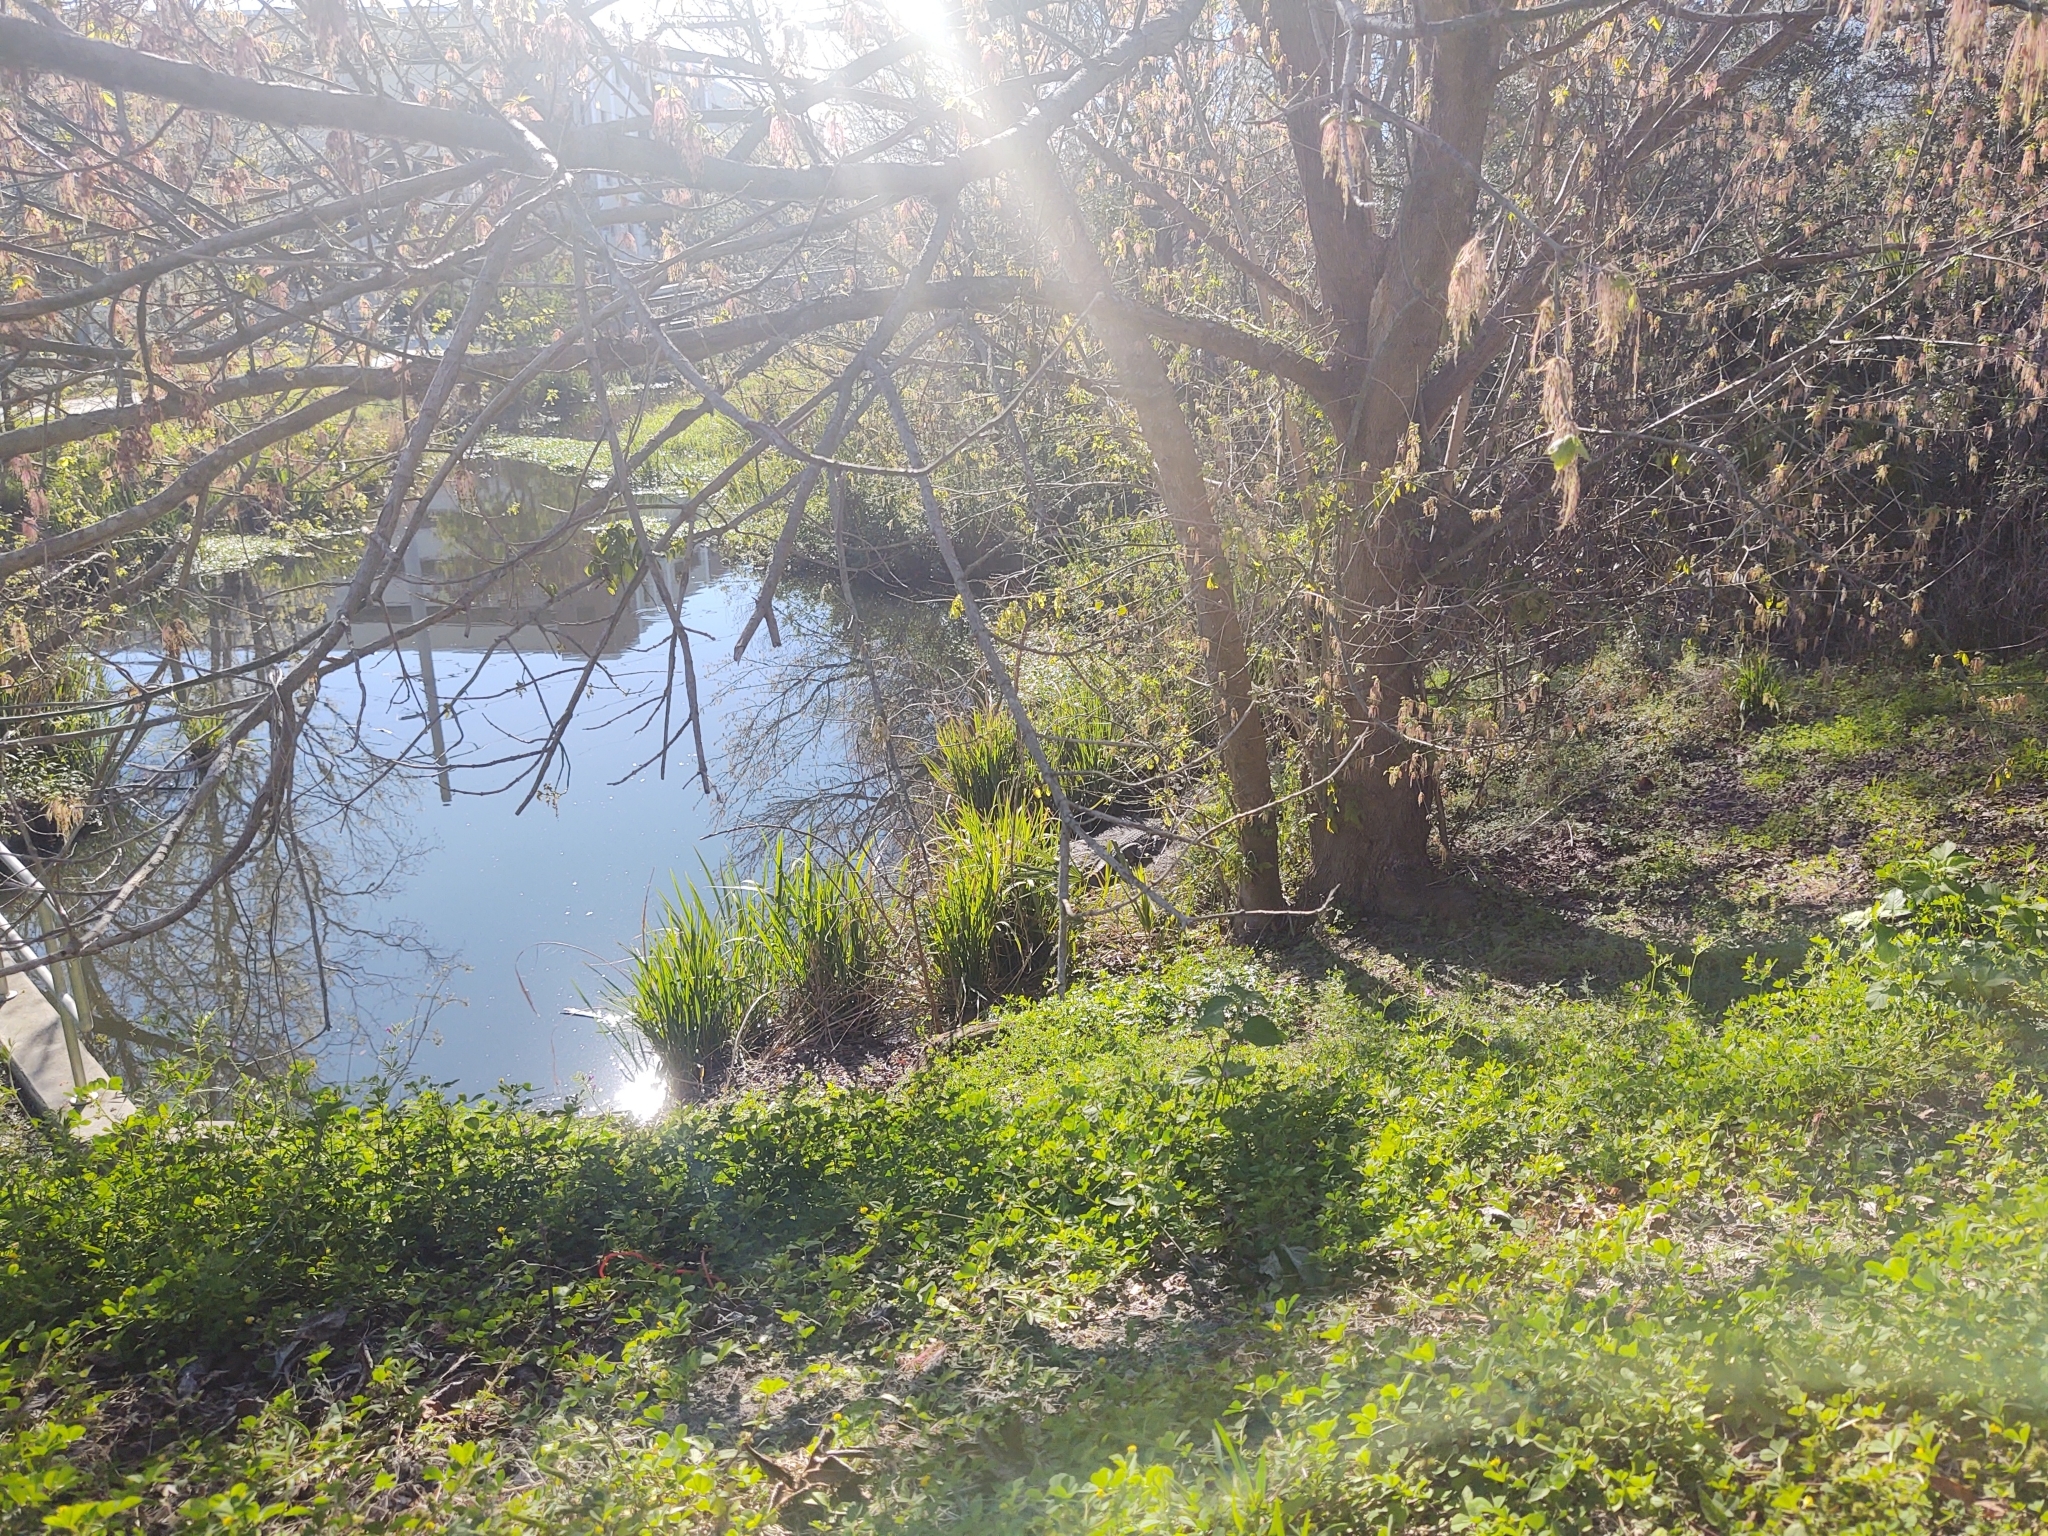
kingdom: Animalia
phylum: Chordata
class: Crocodylia
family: Alligatoridae
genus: Alligator
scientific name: Alligator mississippiensis
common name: American alligator
